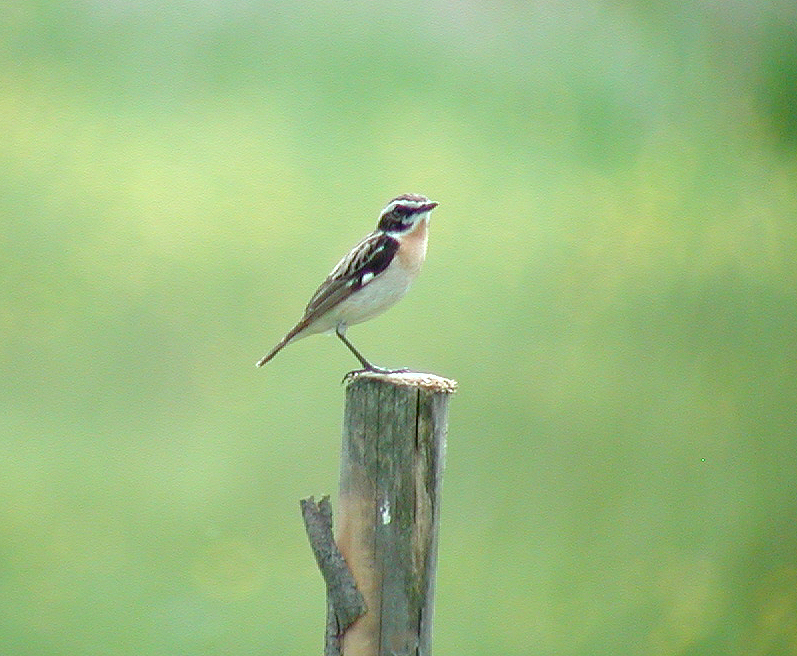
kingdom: Animalia
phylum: Chordata
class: Aves
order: Passeriformes
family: Muscicapidae
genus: Saxicola
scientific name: Saxicola rubetra
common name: Whinchat
